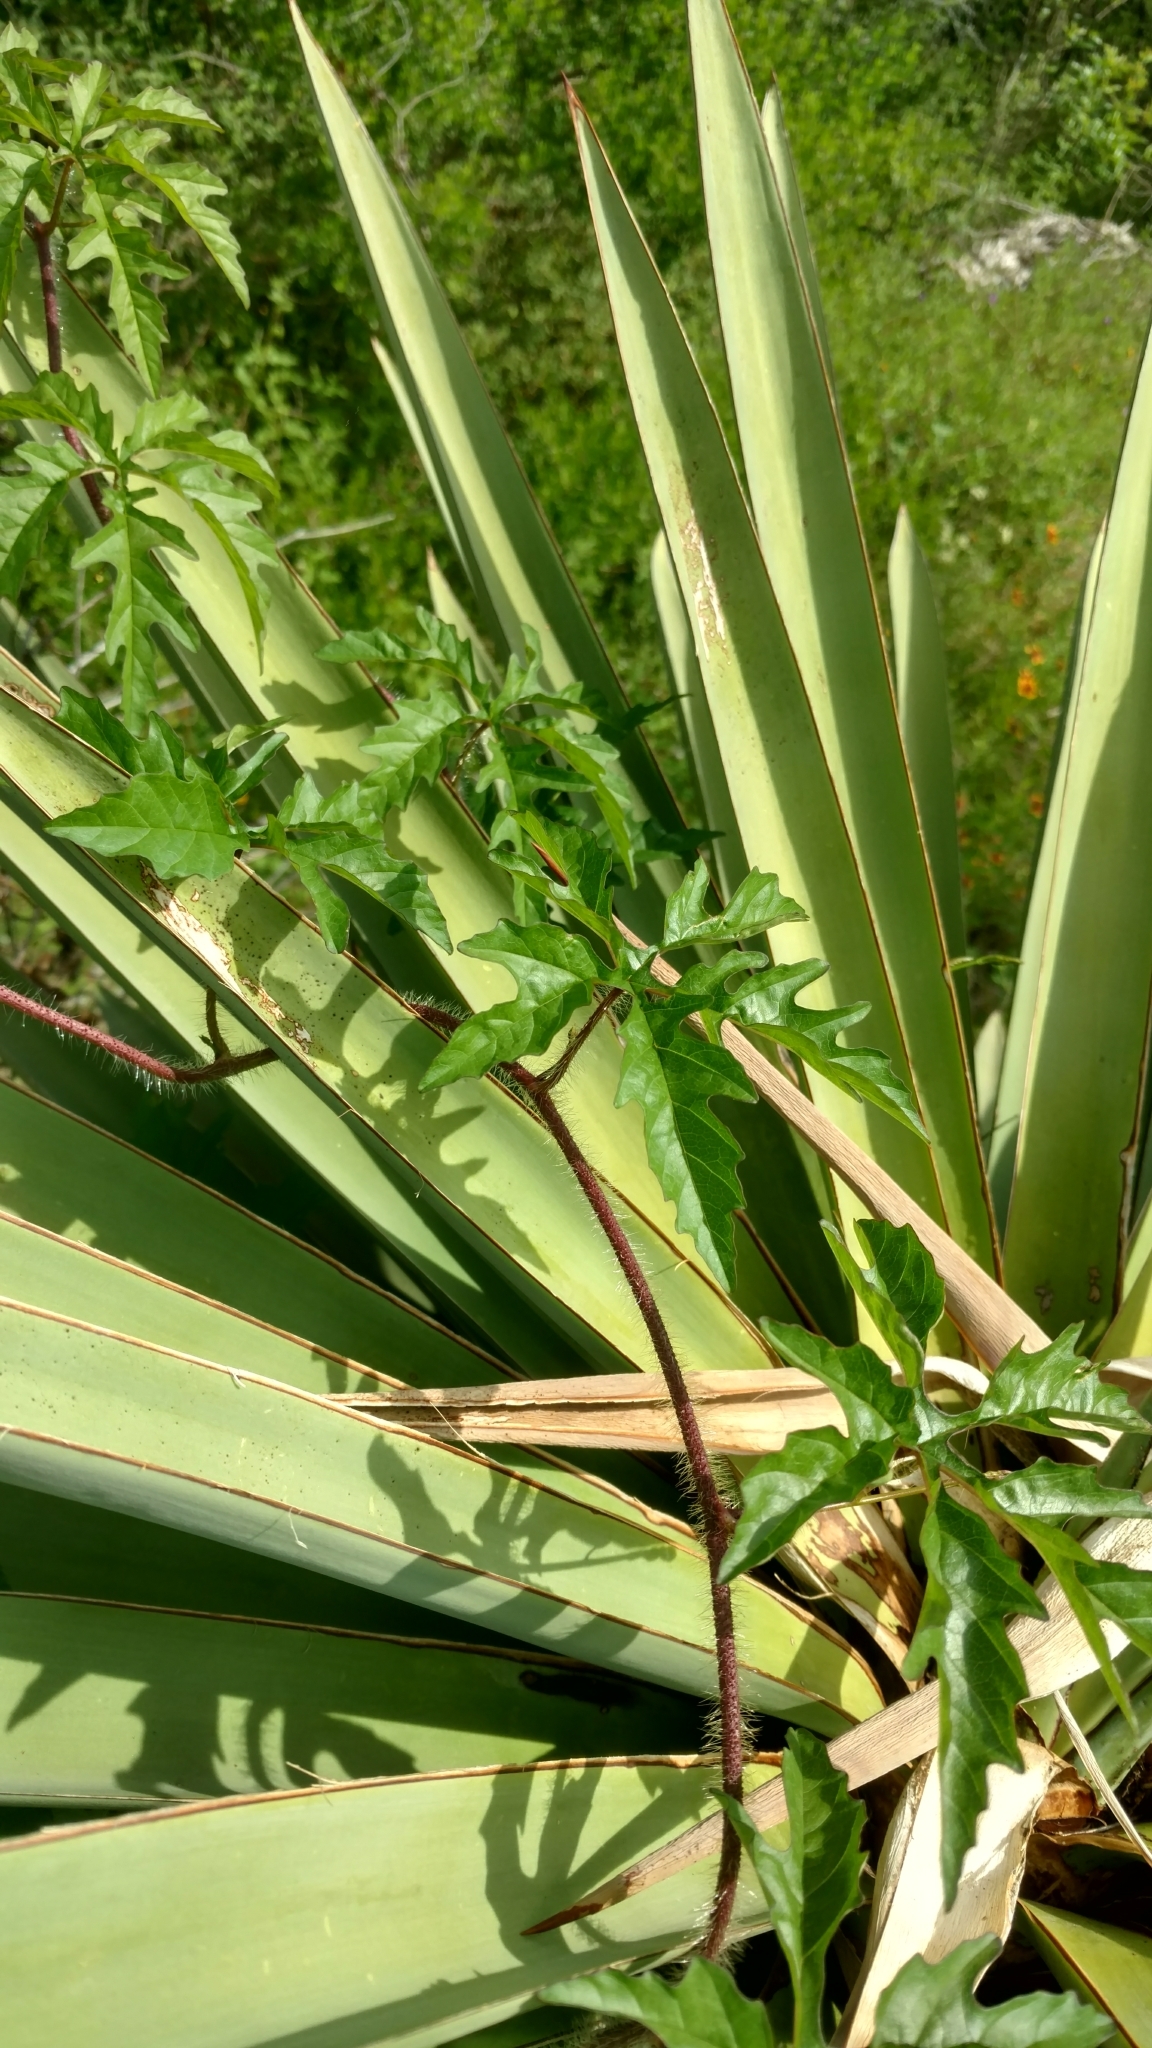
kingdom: Plantae
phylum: Tracheophyta
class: Magnoliopsida
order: Solanales
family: Convolvulaceae
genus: Distimake
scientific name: Distimake dissectus
